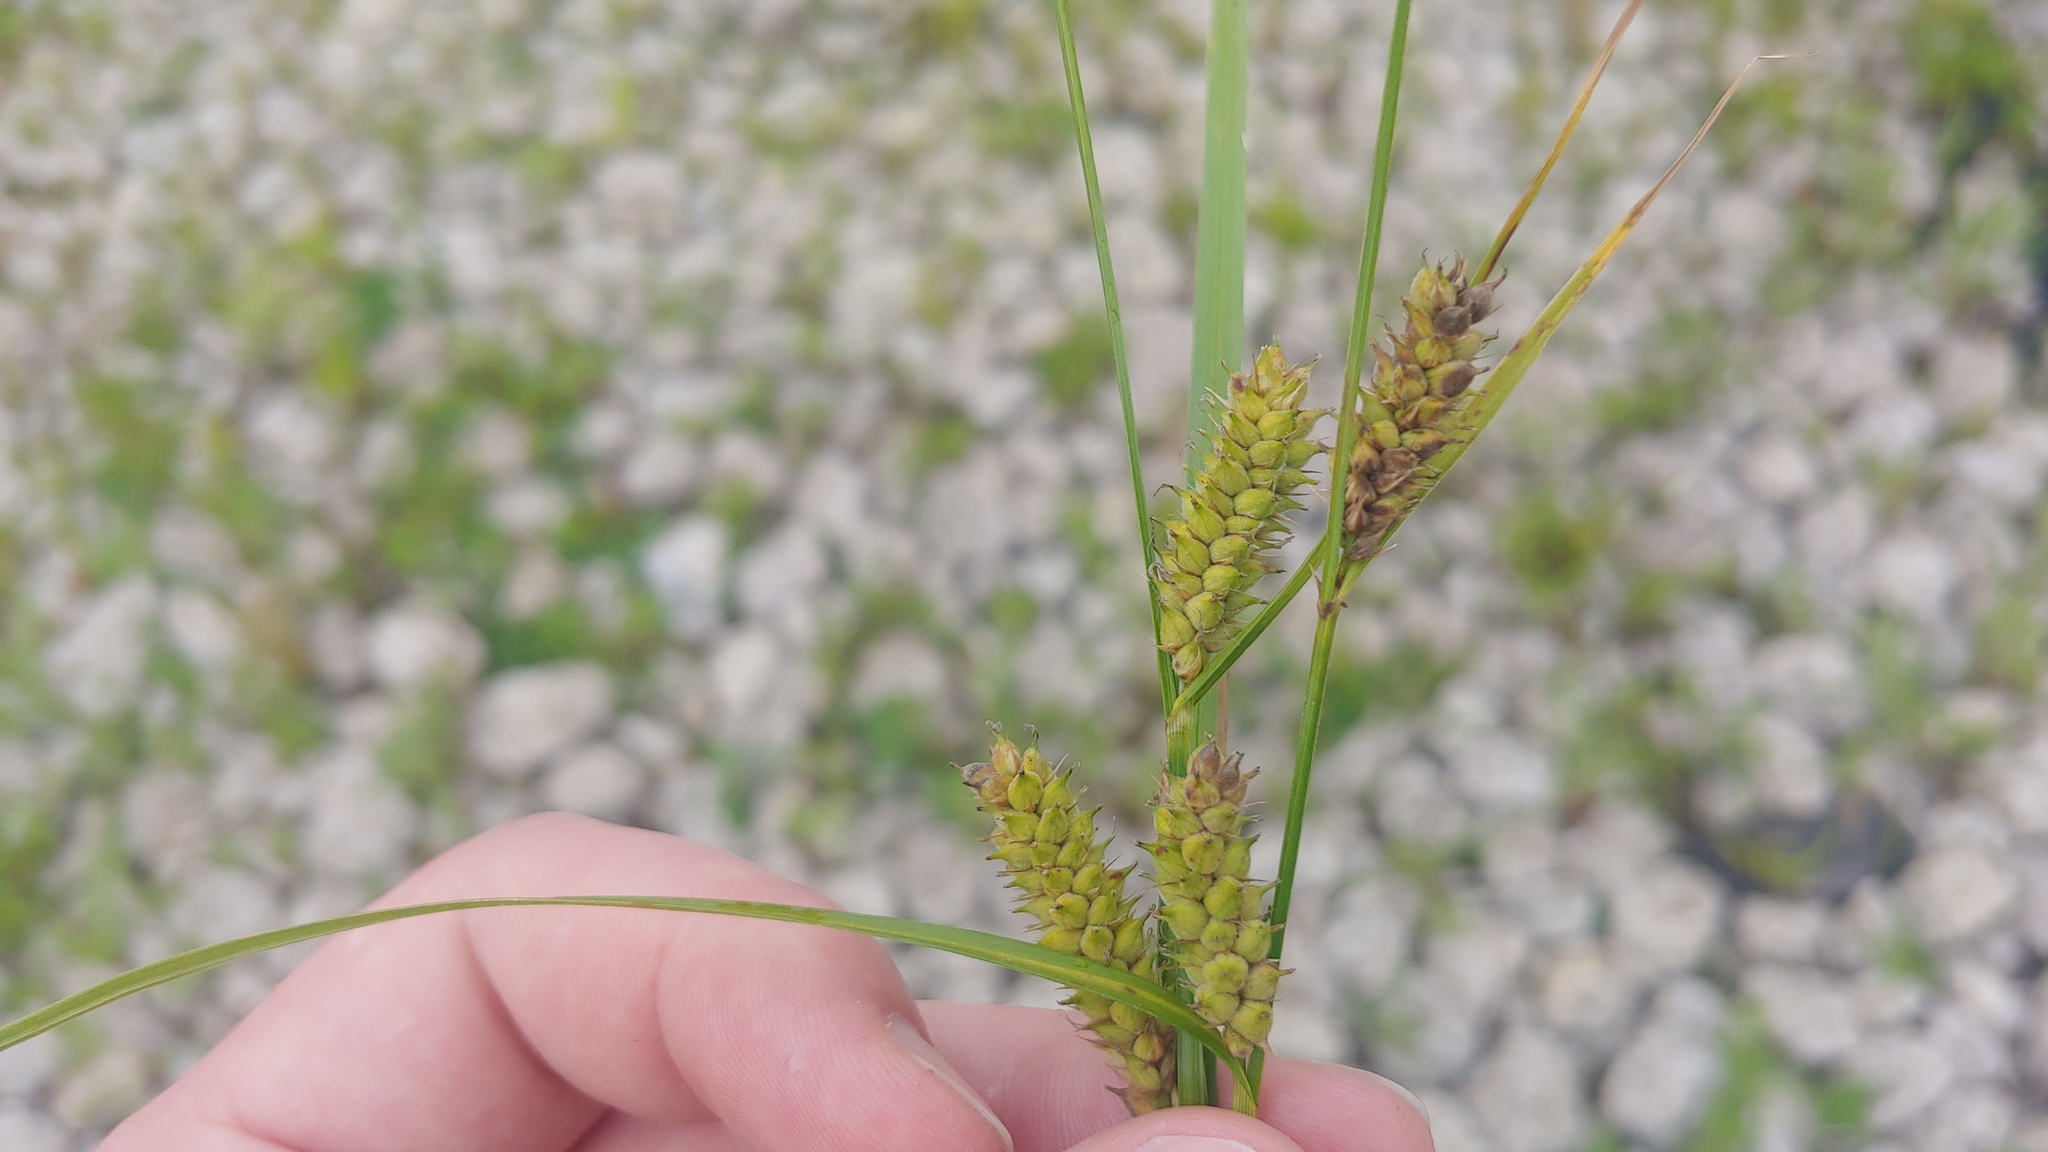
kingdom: Plantae
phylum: Tracheophyta
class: Liliopsida
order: Poales
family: Cyperaceae
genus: Carex
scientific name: Carex pellita
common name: Woolly sedge
